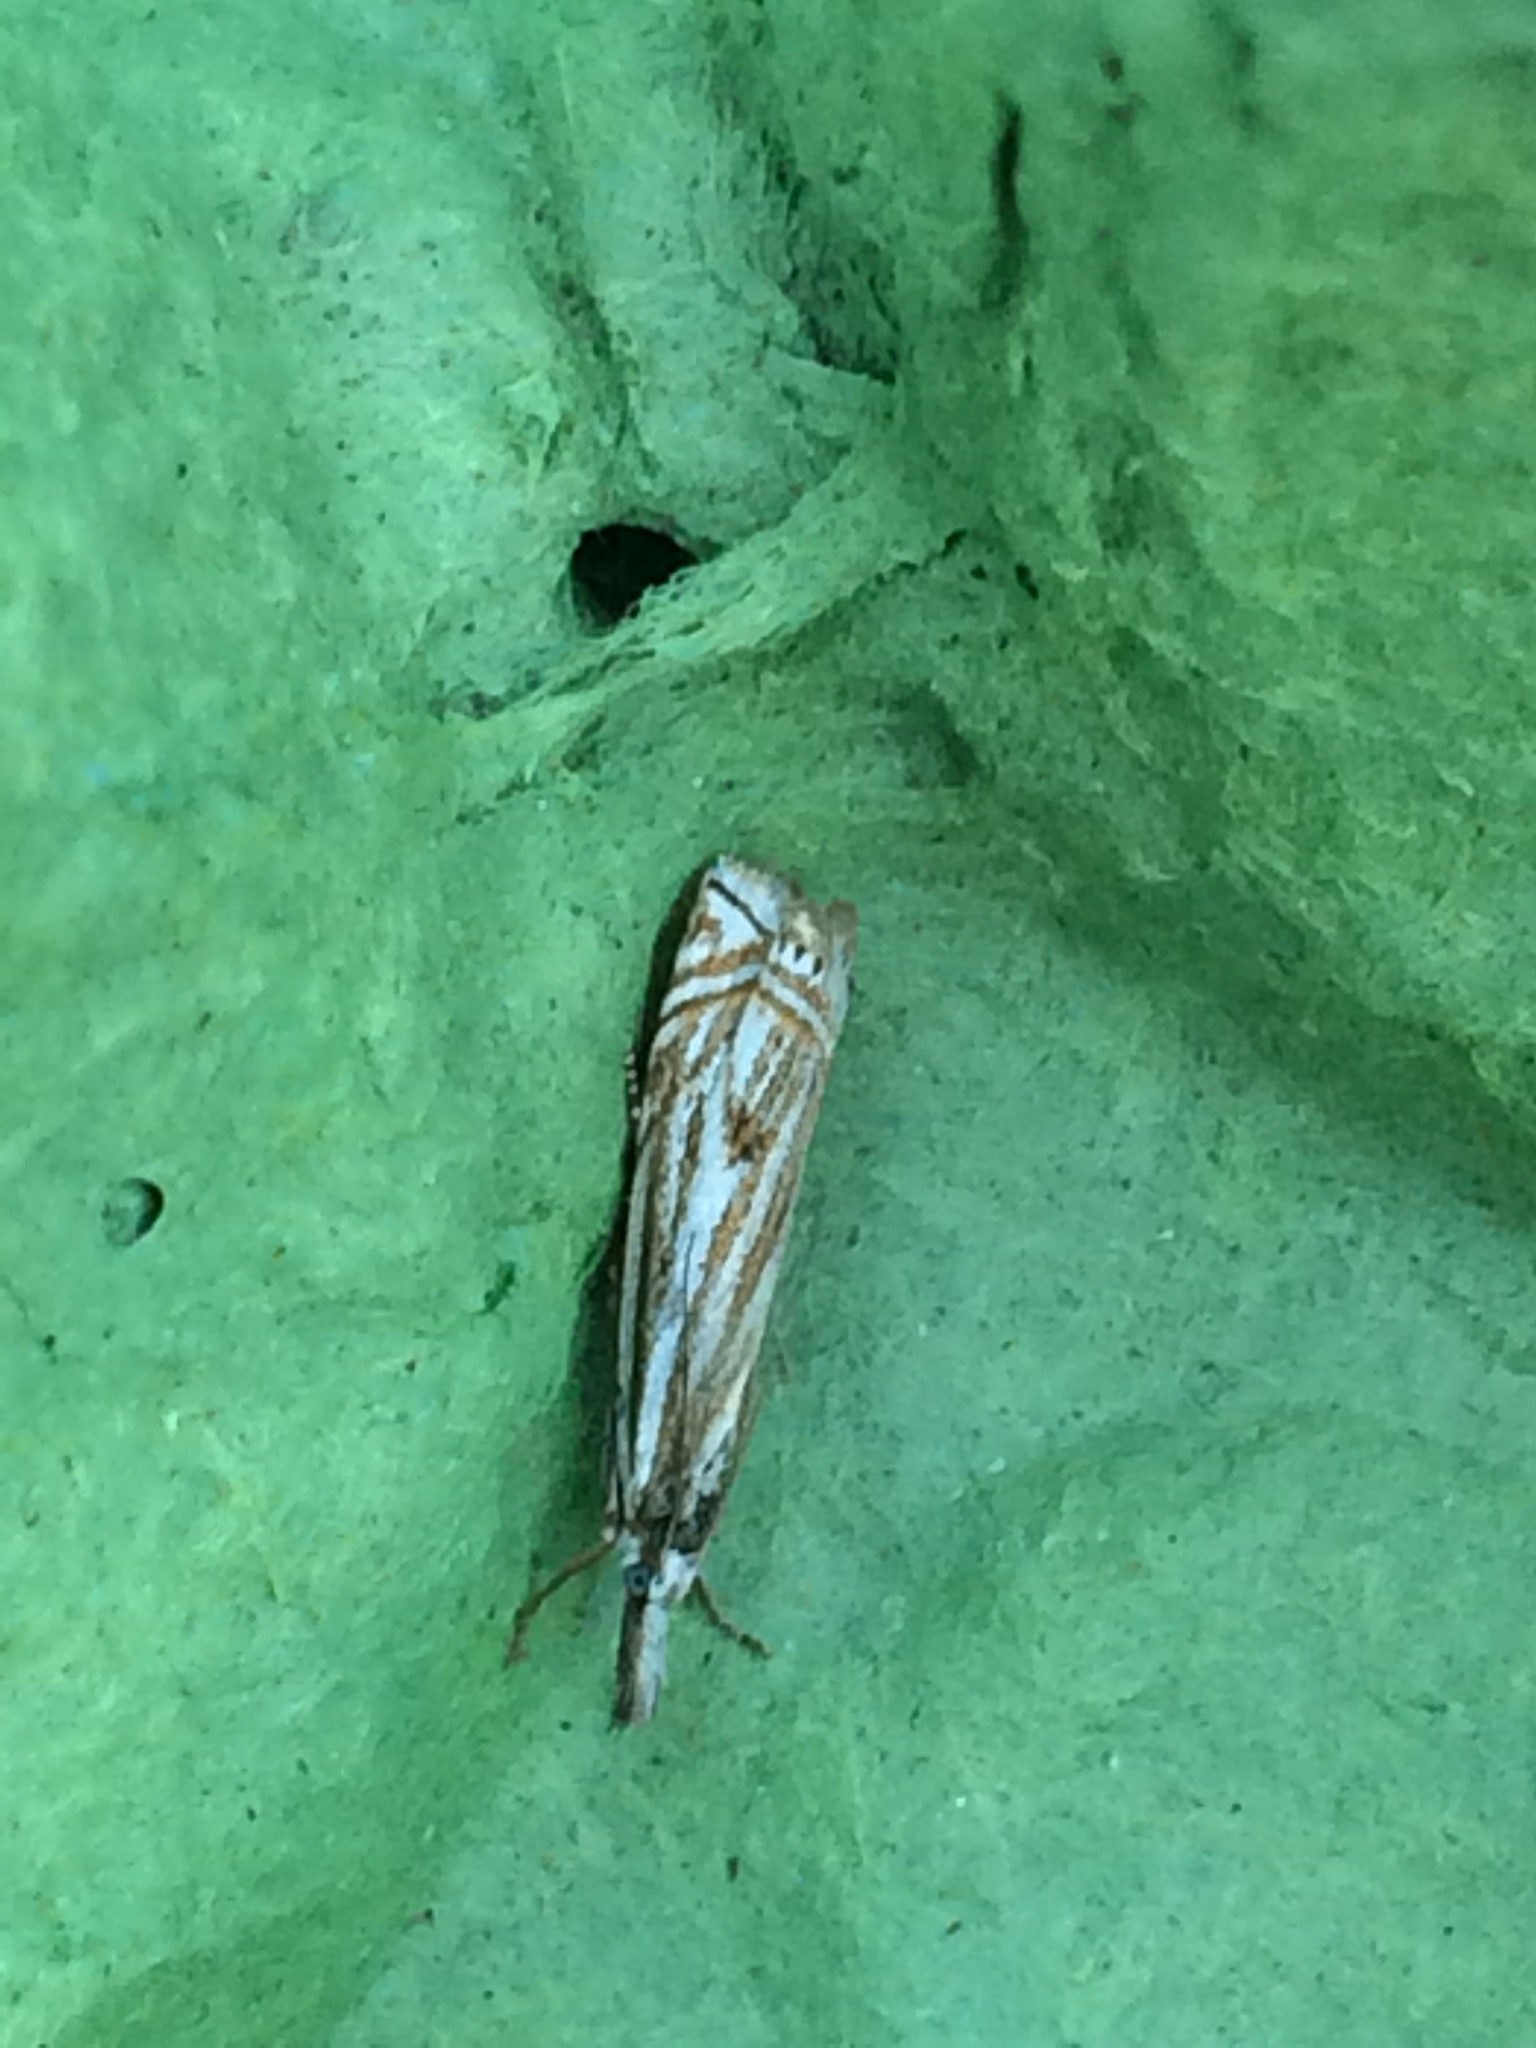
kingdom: Animalia
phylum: Arthropoda
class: Insecta
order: Lepidoptera
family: Crambidae
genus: Crambus
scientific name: Crambus nemorella
